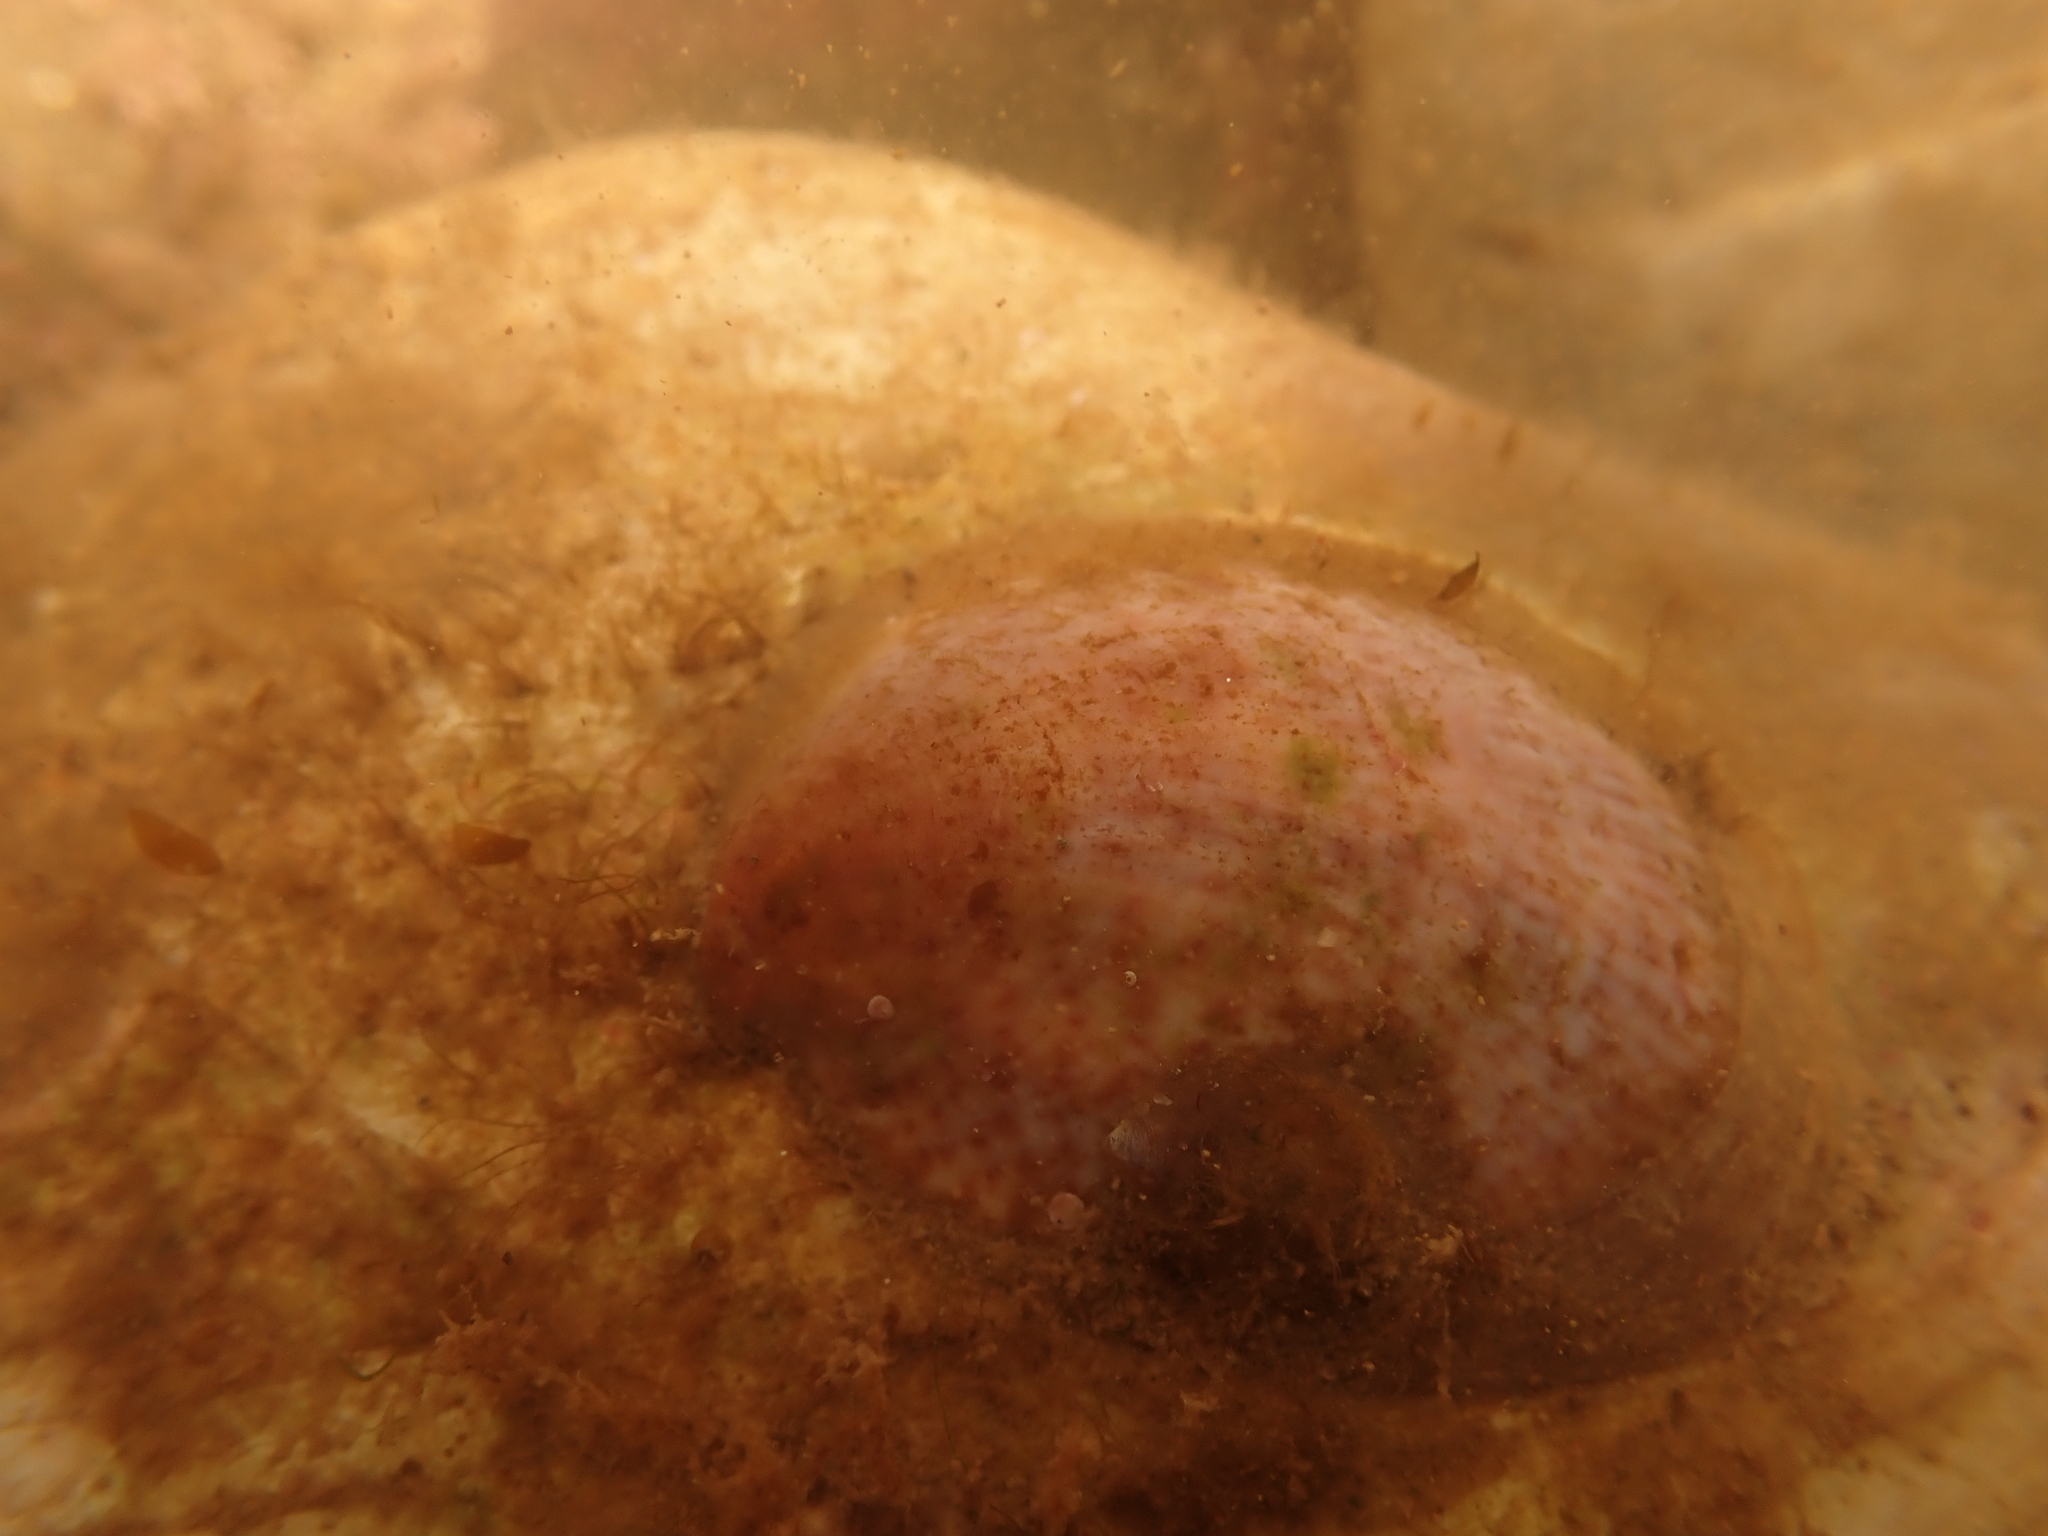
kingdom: Animalia
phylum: Mollusca
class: Gastropoda
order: Littorinimorpha
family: Calyptraeidae
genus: Crepidula
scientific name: Crepidula fornicata
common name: Slipper limpet
